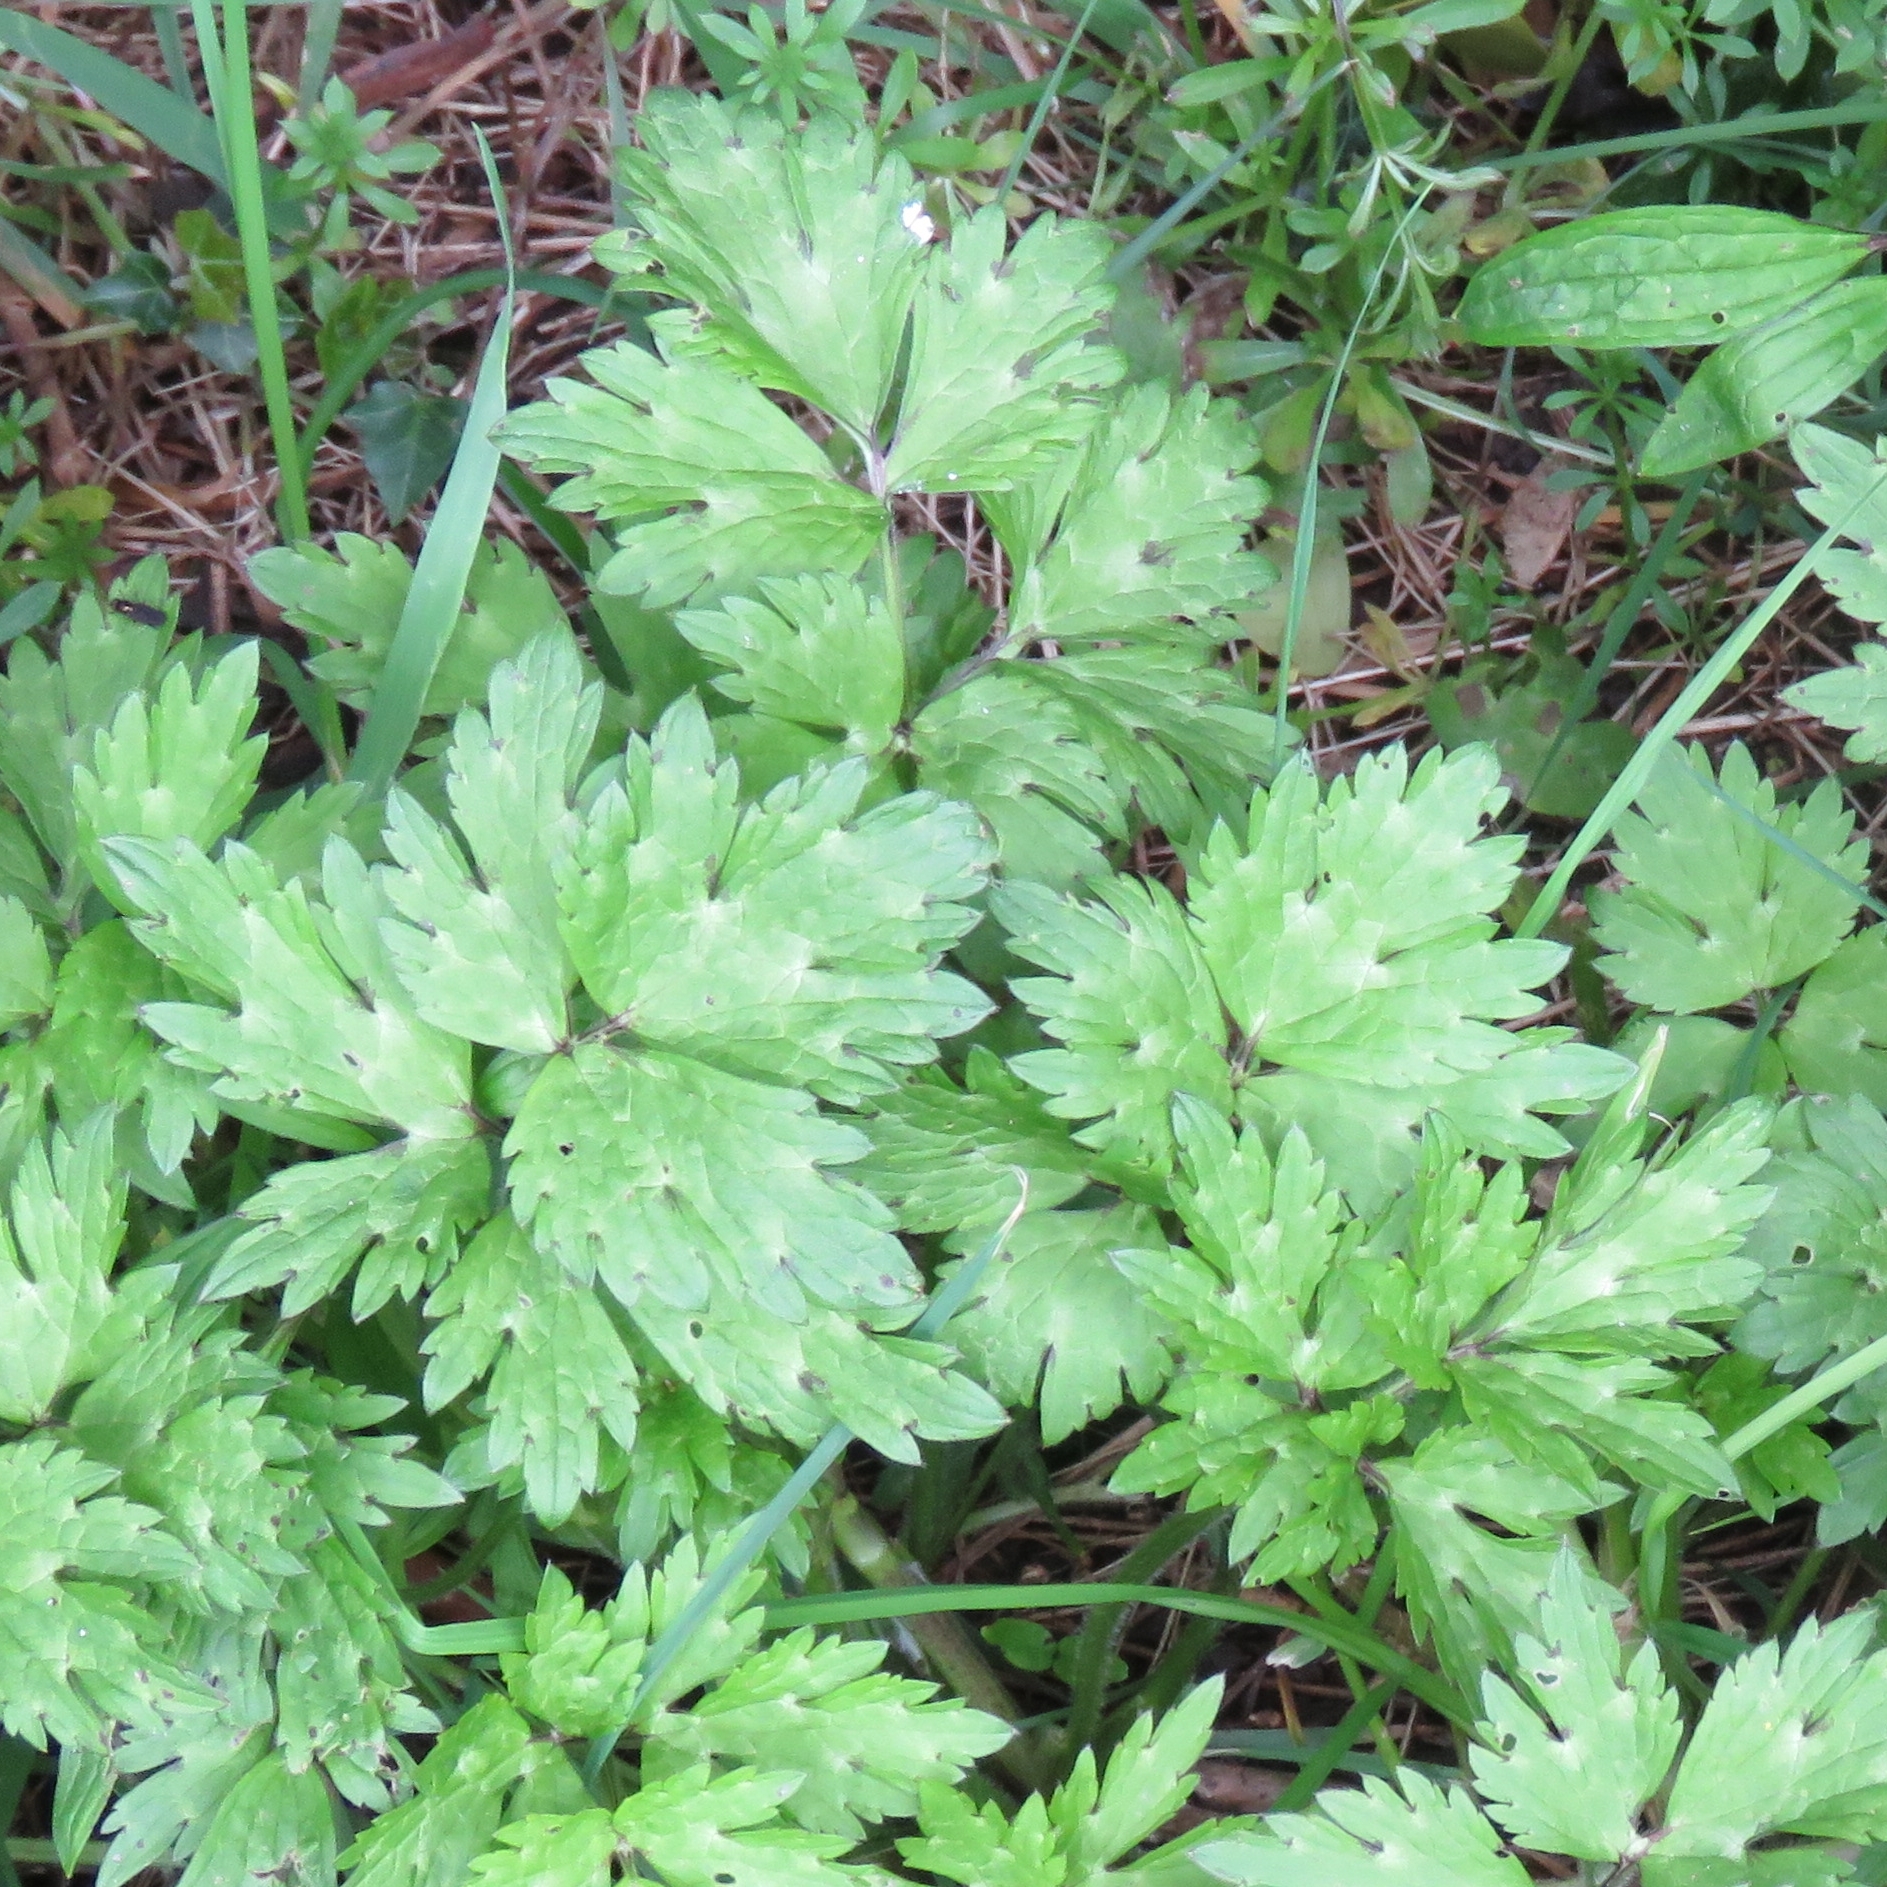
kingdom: Plantae
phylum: Tracheophyta
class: Magnoliopsida
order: Ranunculales
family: Ranunculaceae
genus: Ranunculus
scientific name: Ranunculus repens
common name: Creeping buttercup
